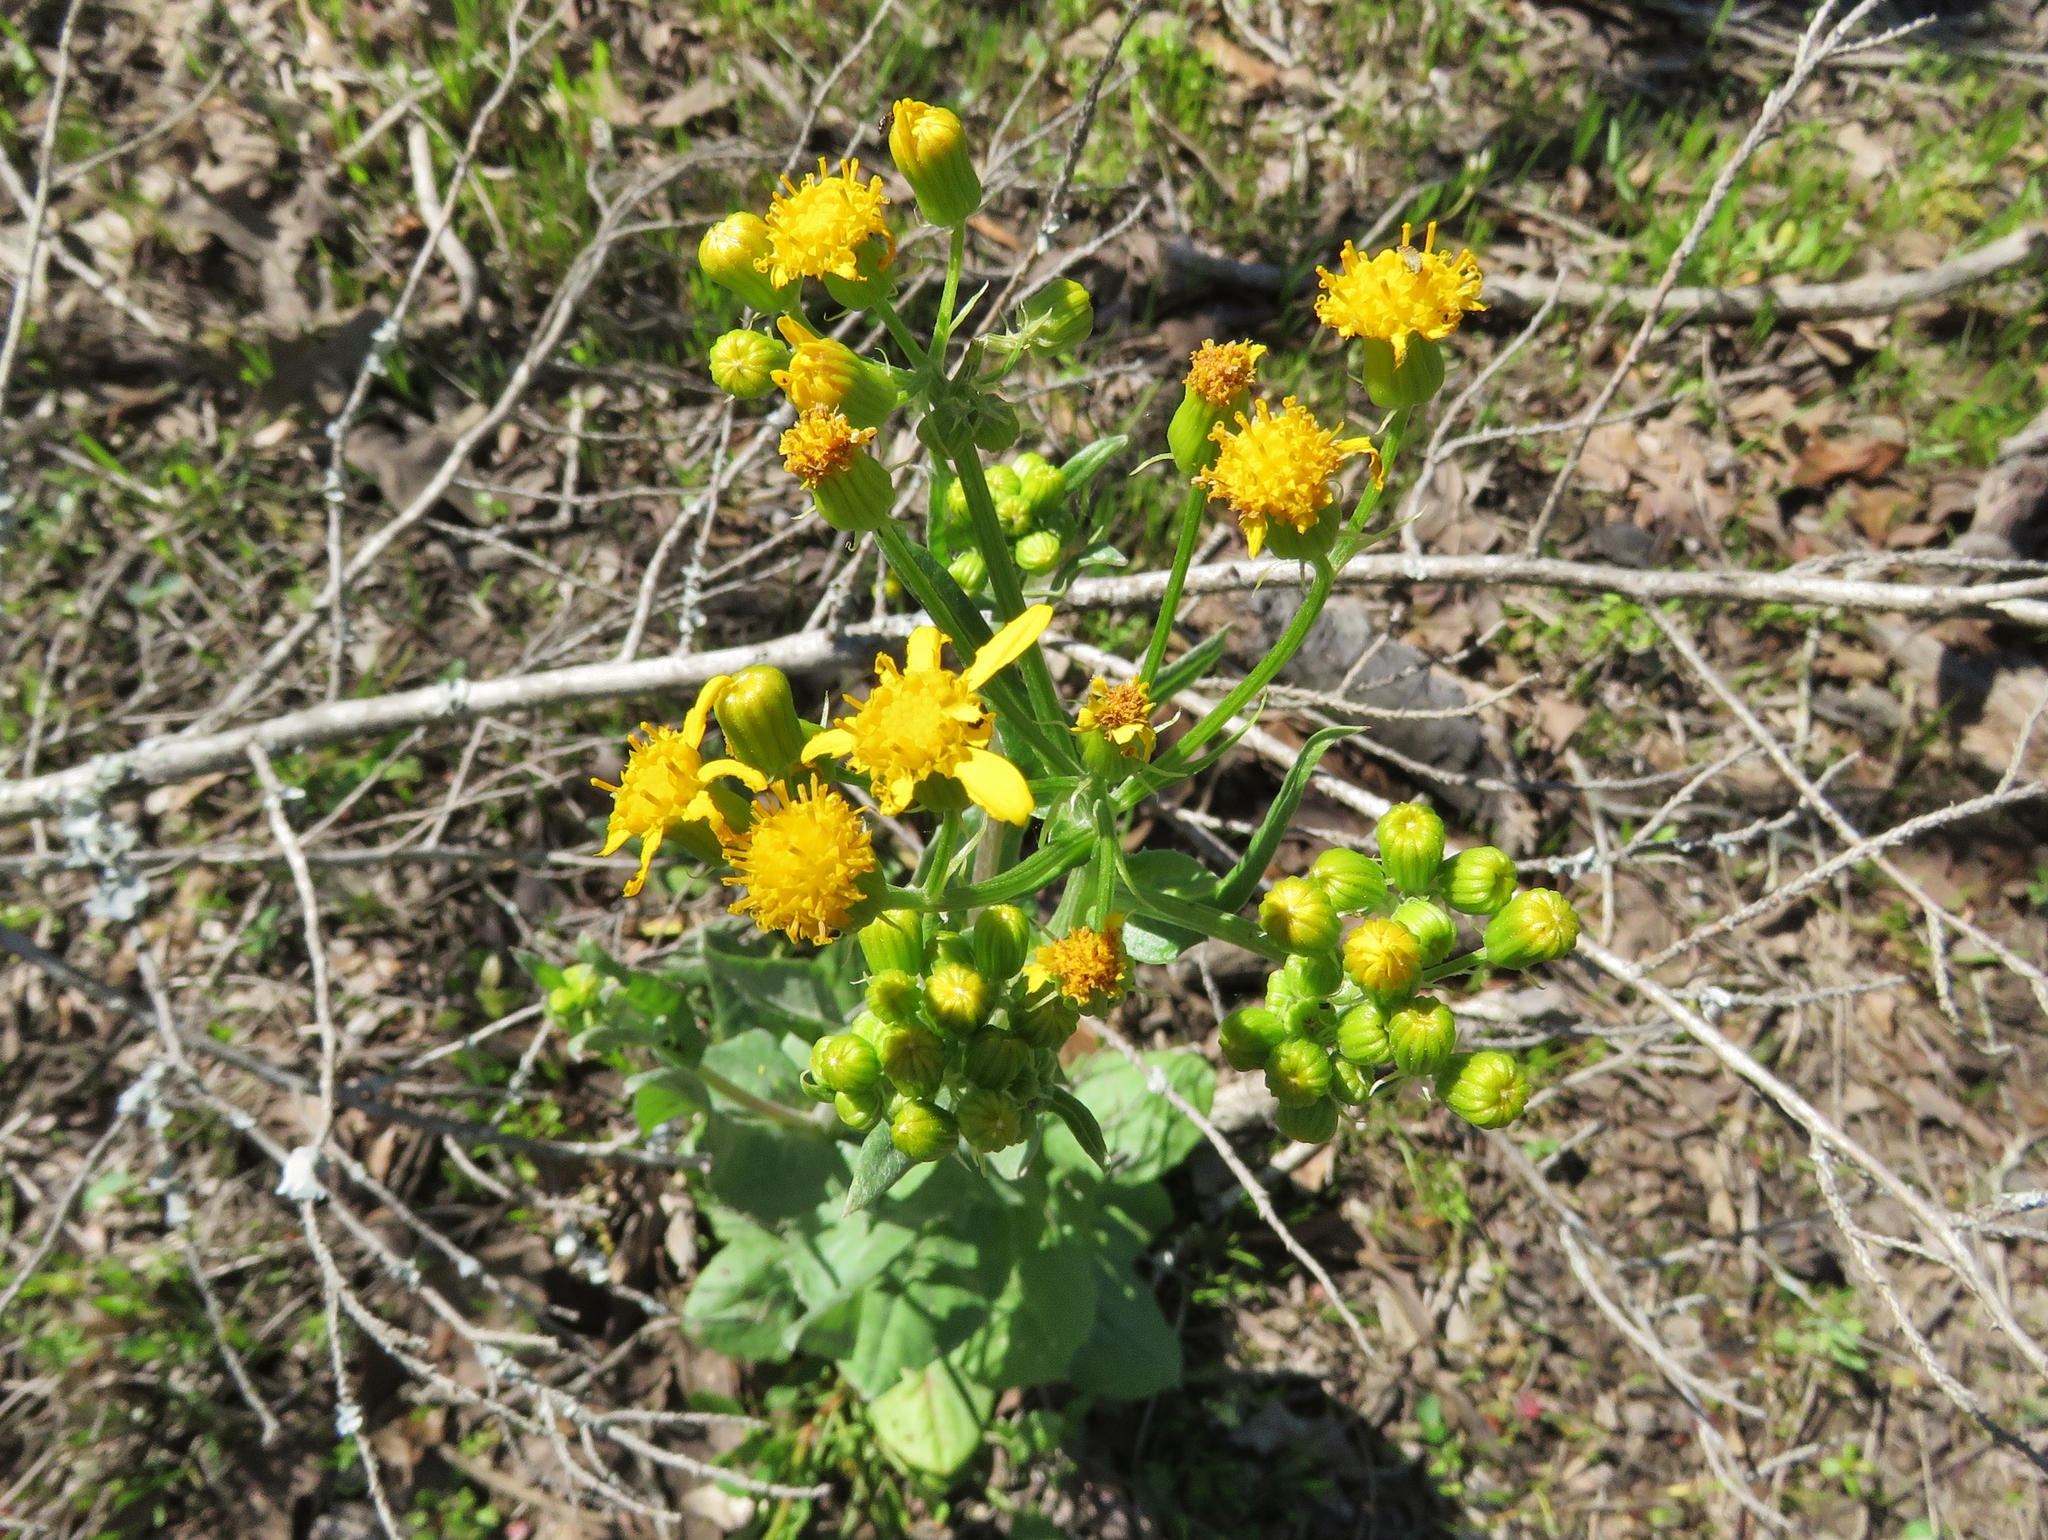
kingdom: Plantae
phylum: Tracheophyta
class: Magnoliopsida
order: Asterales
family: Asteraceae
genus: Senecio
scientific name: Senecio ampullaceus
